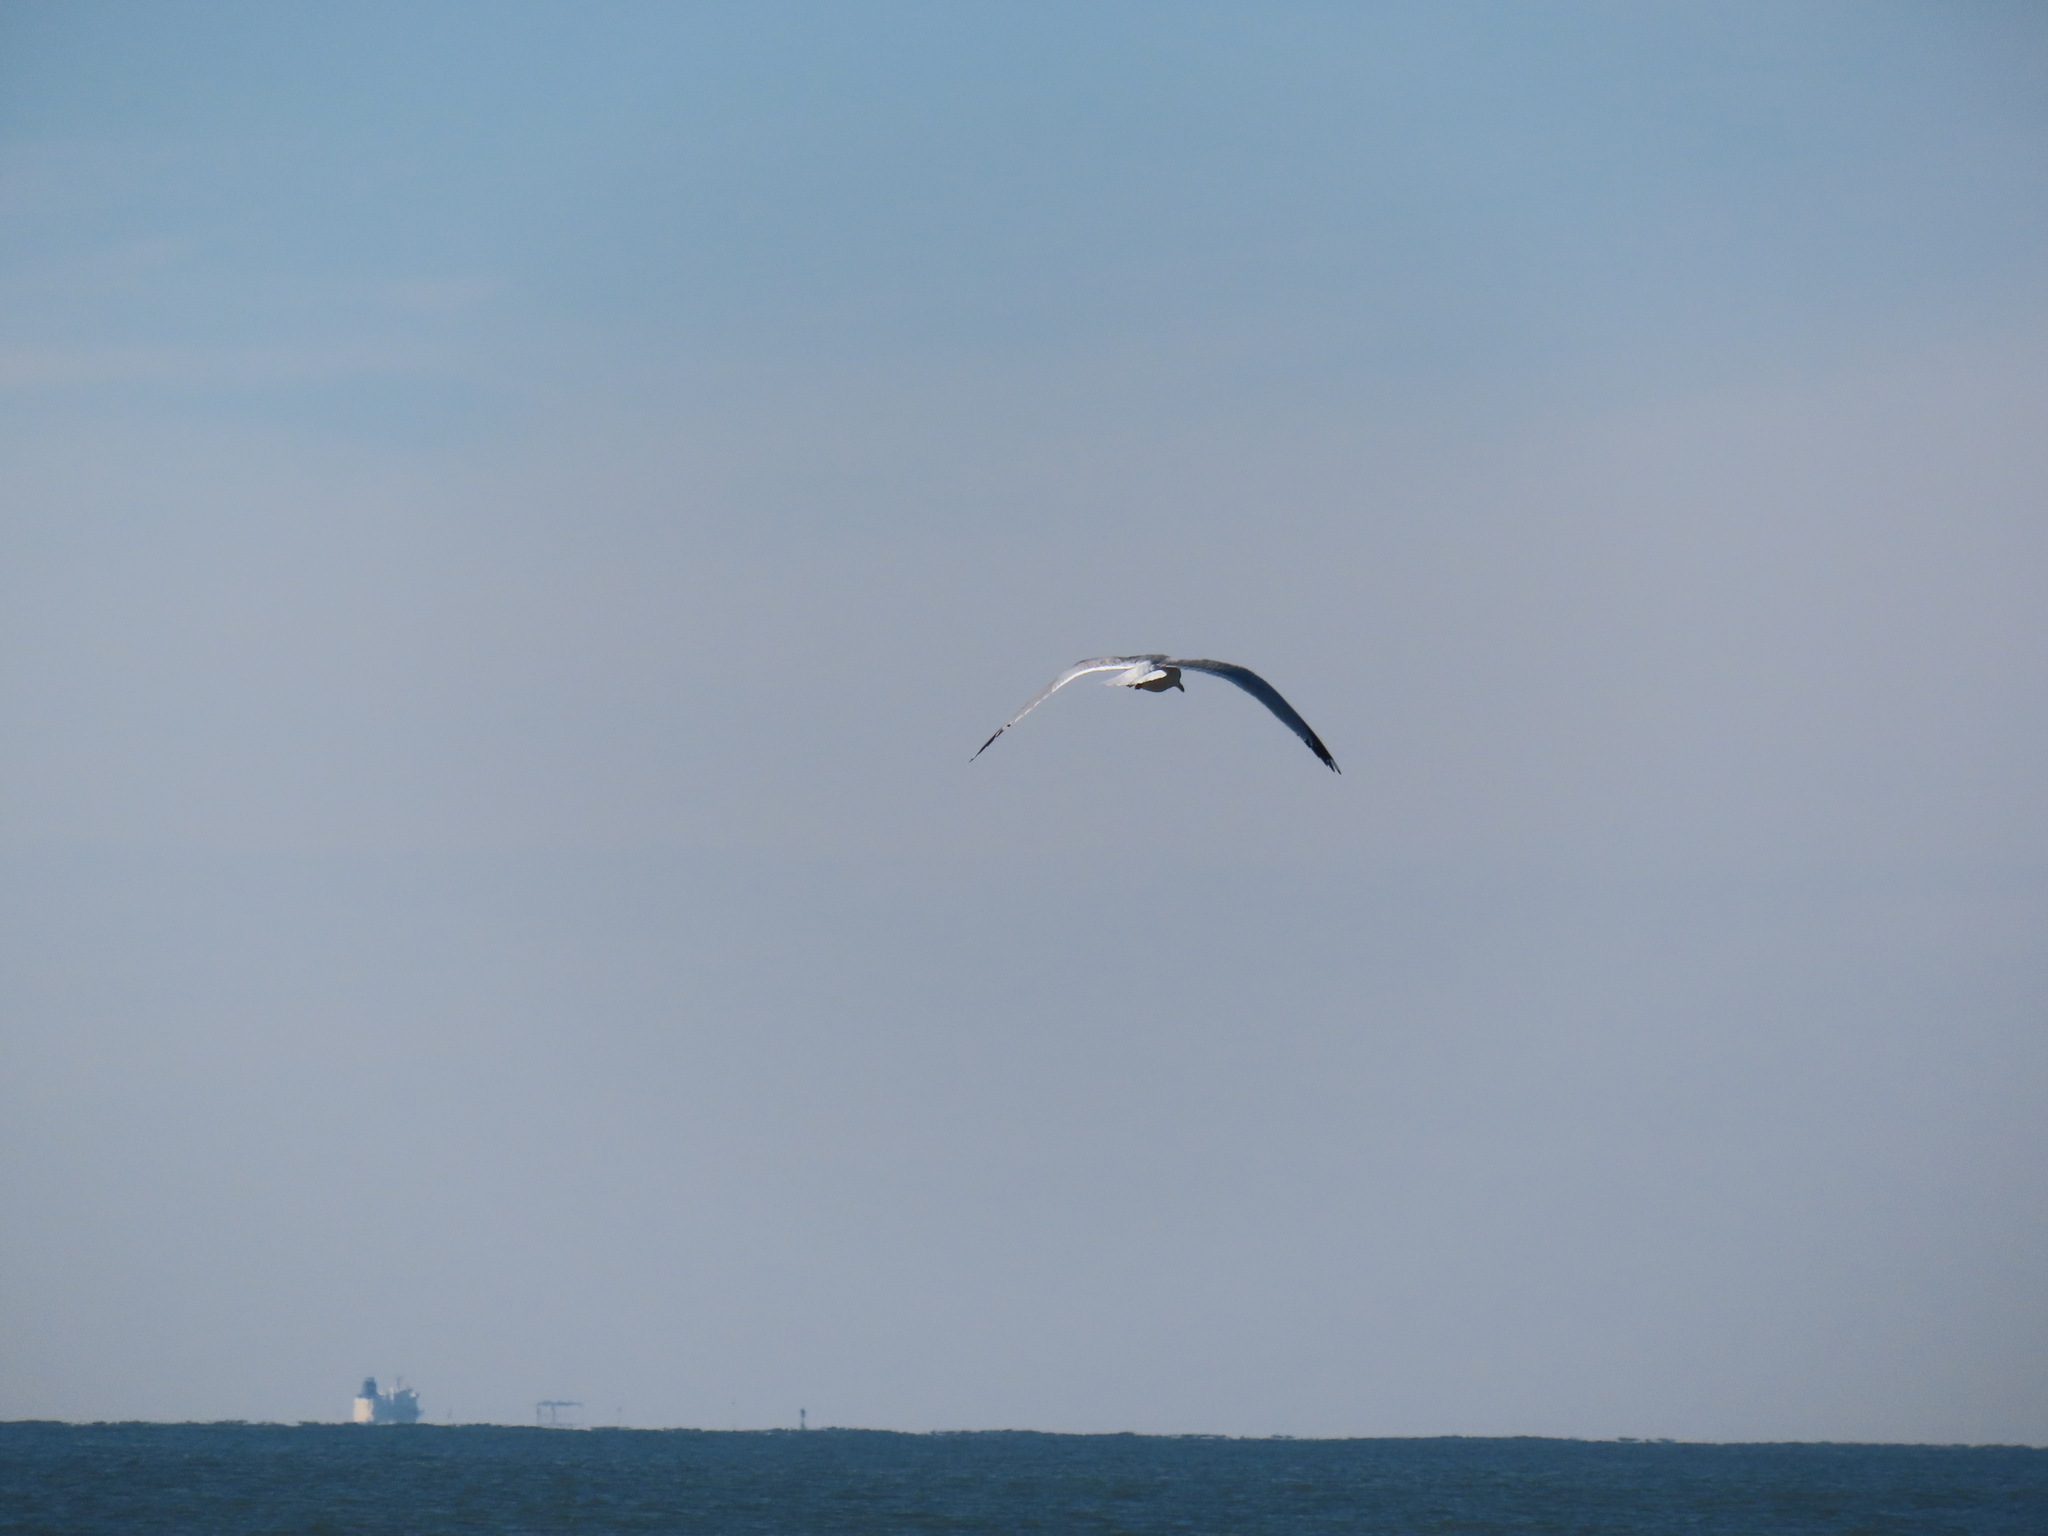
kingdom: Animalia
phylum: Chordata
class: Aves
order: Charadriiformes
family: Laridae
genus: Larus
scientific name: Larus delawarensis
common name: Ring-billed gull
